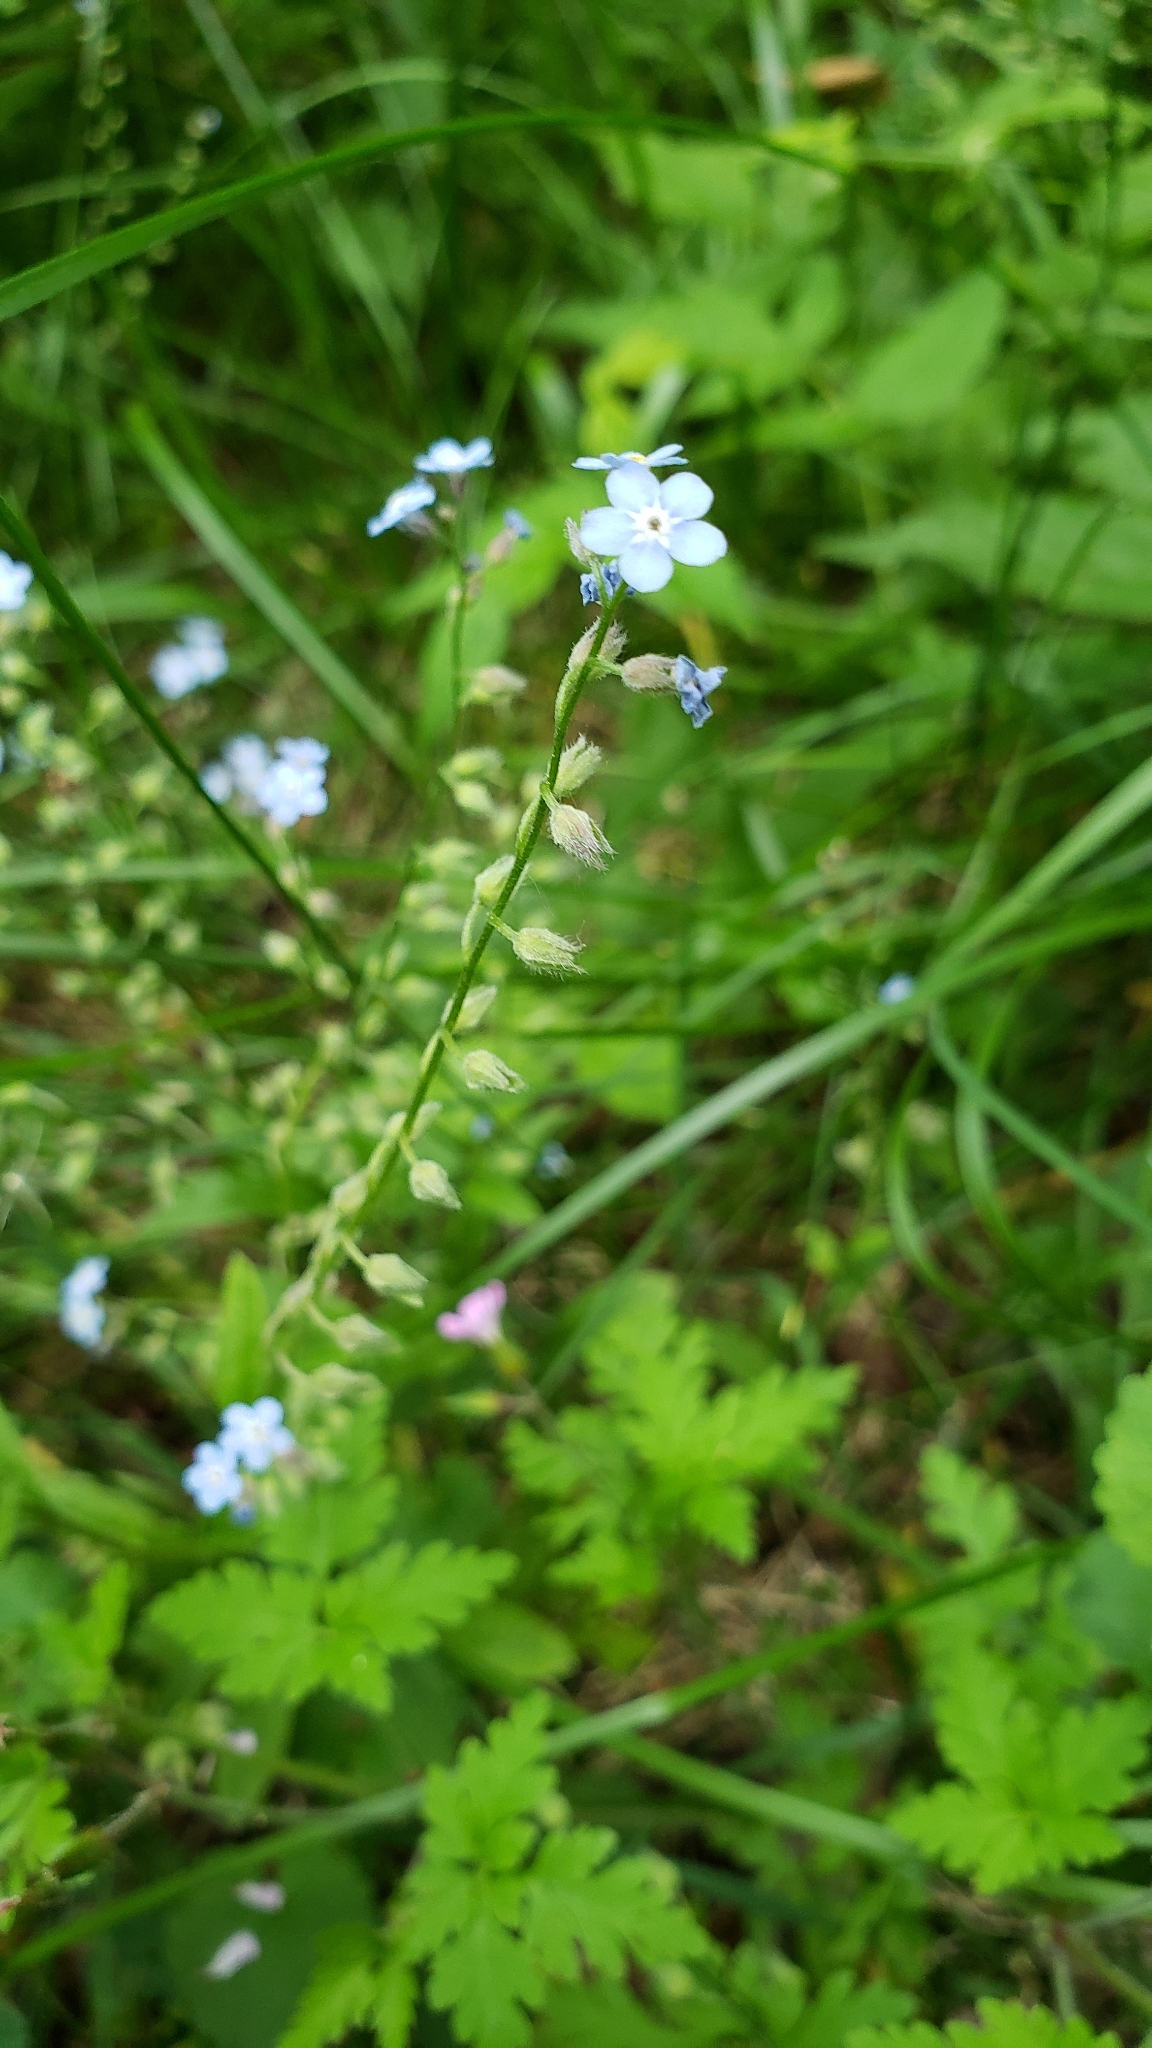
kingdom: Plantae
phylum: Tracheophyta
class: Magnoliopsida
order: Boraginales
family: Boraginaceae
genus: Myosotis
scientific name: Myosotis sylvatica
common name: Wood forget-me-not
